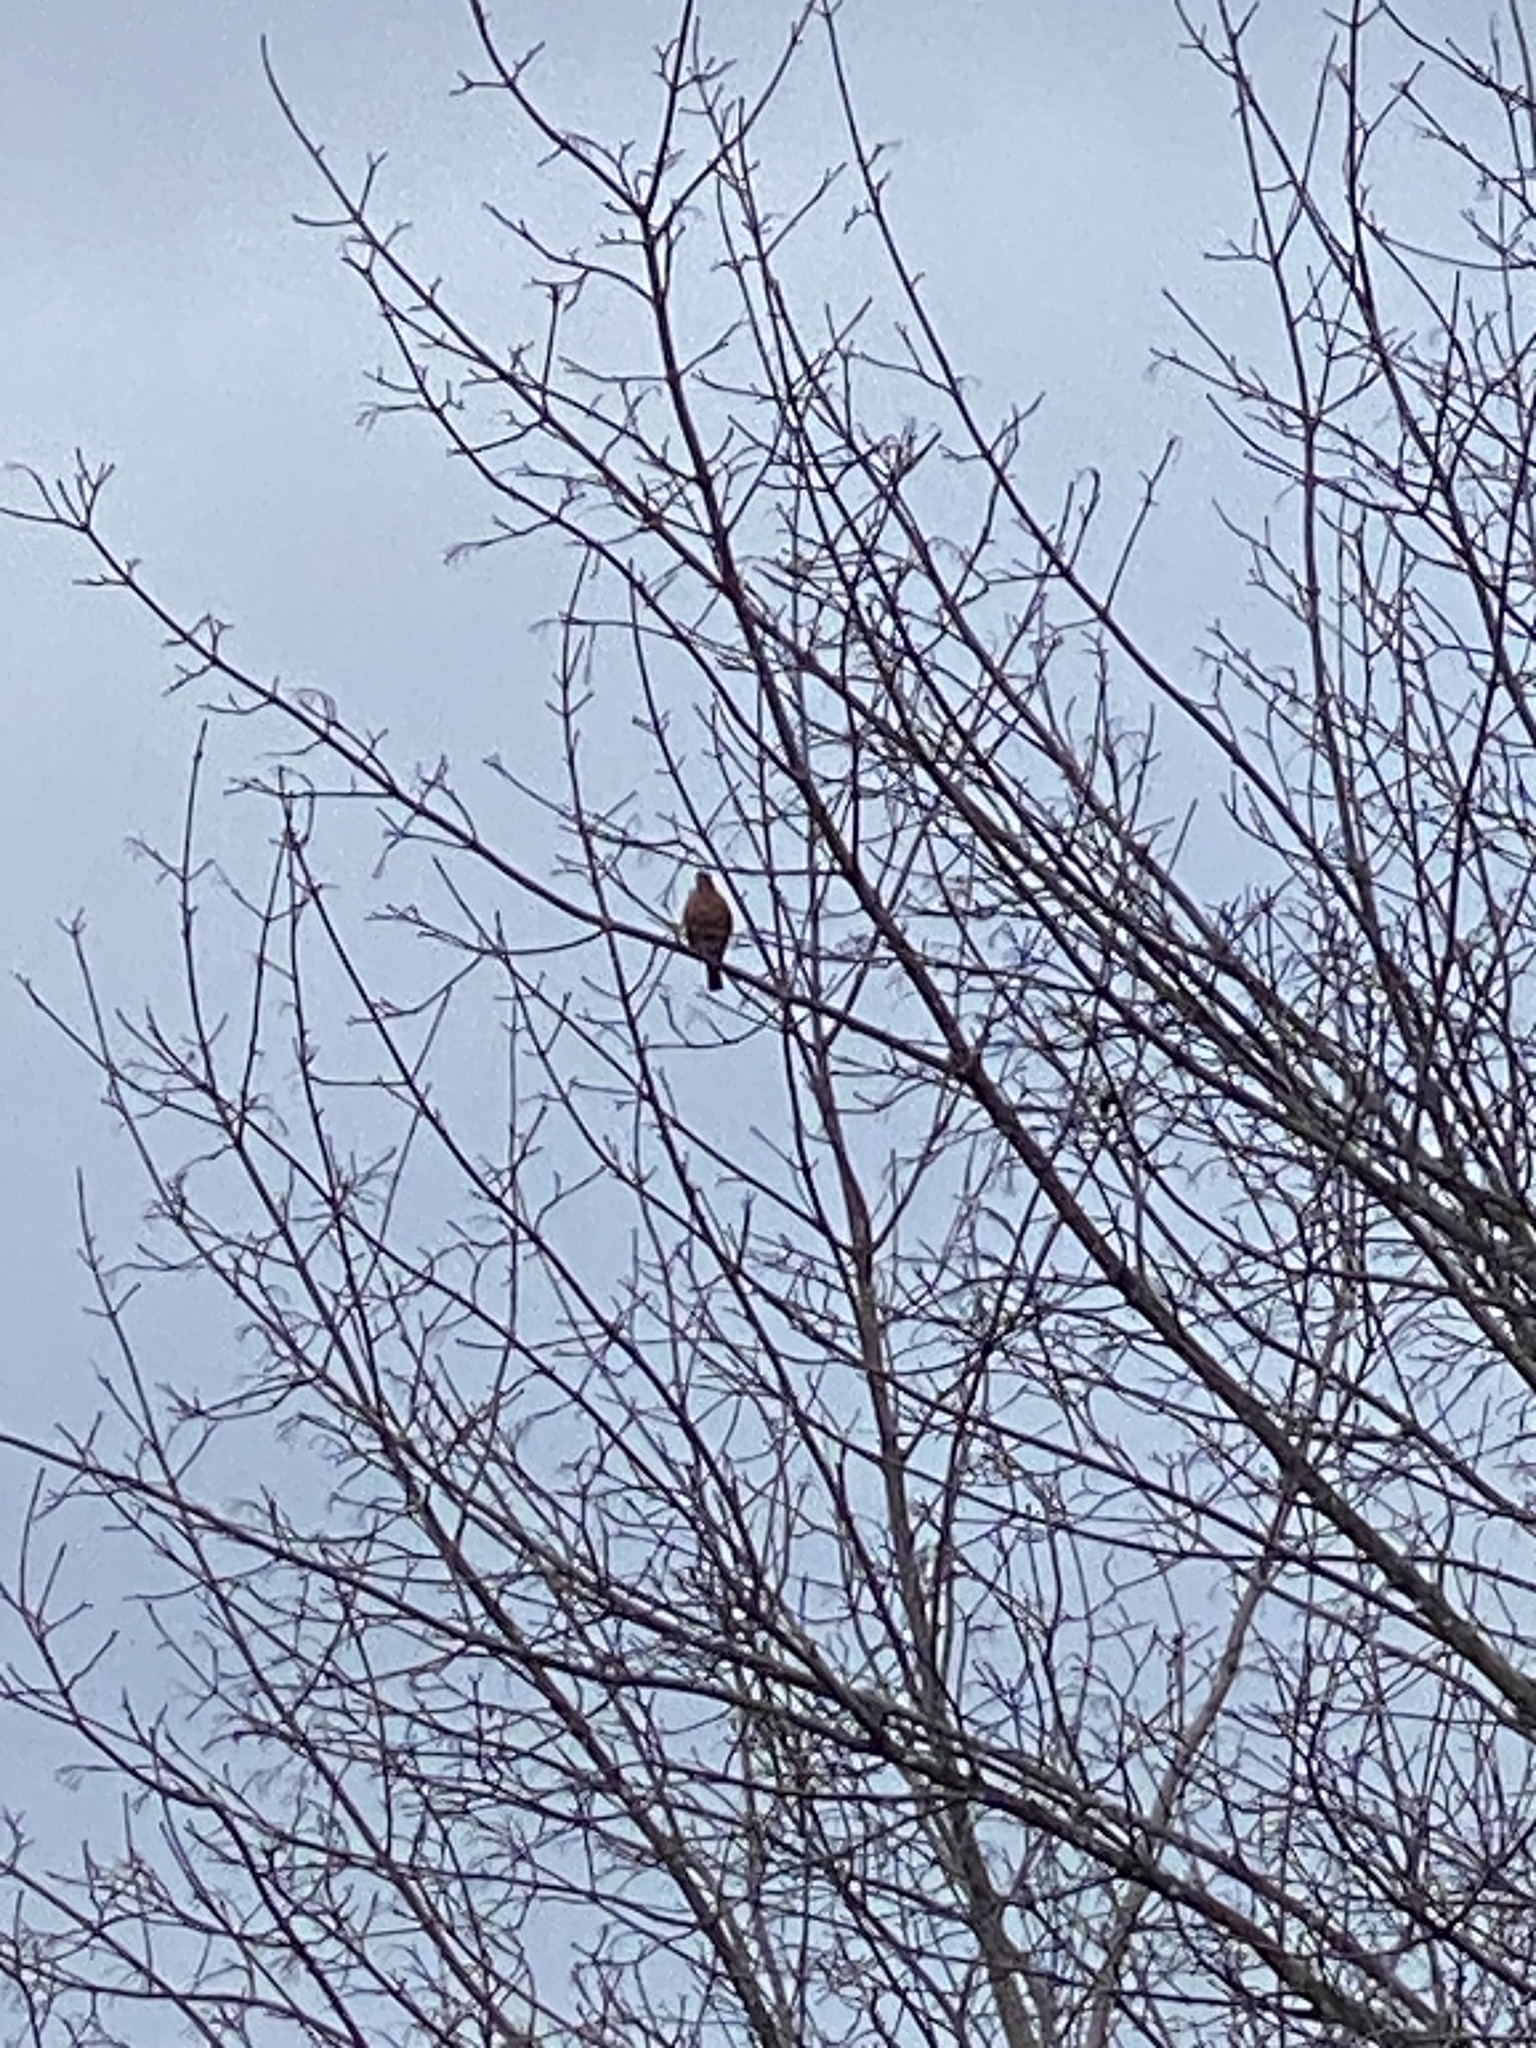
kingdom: Animalia
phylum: Chordata
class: Aves
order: Passeriformes
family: Turdidae
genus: Turdus
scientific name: Turdus migratorius
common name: American robin
